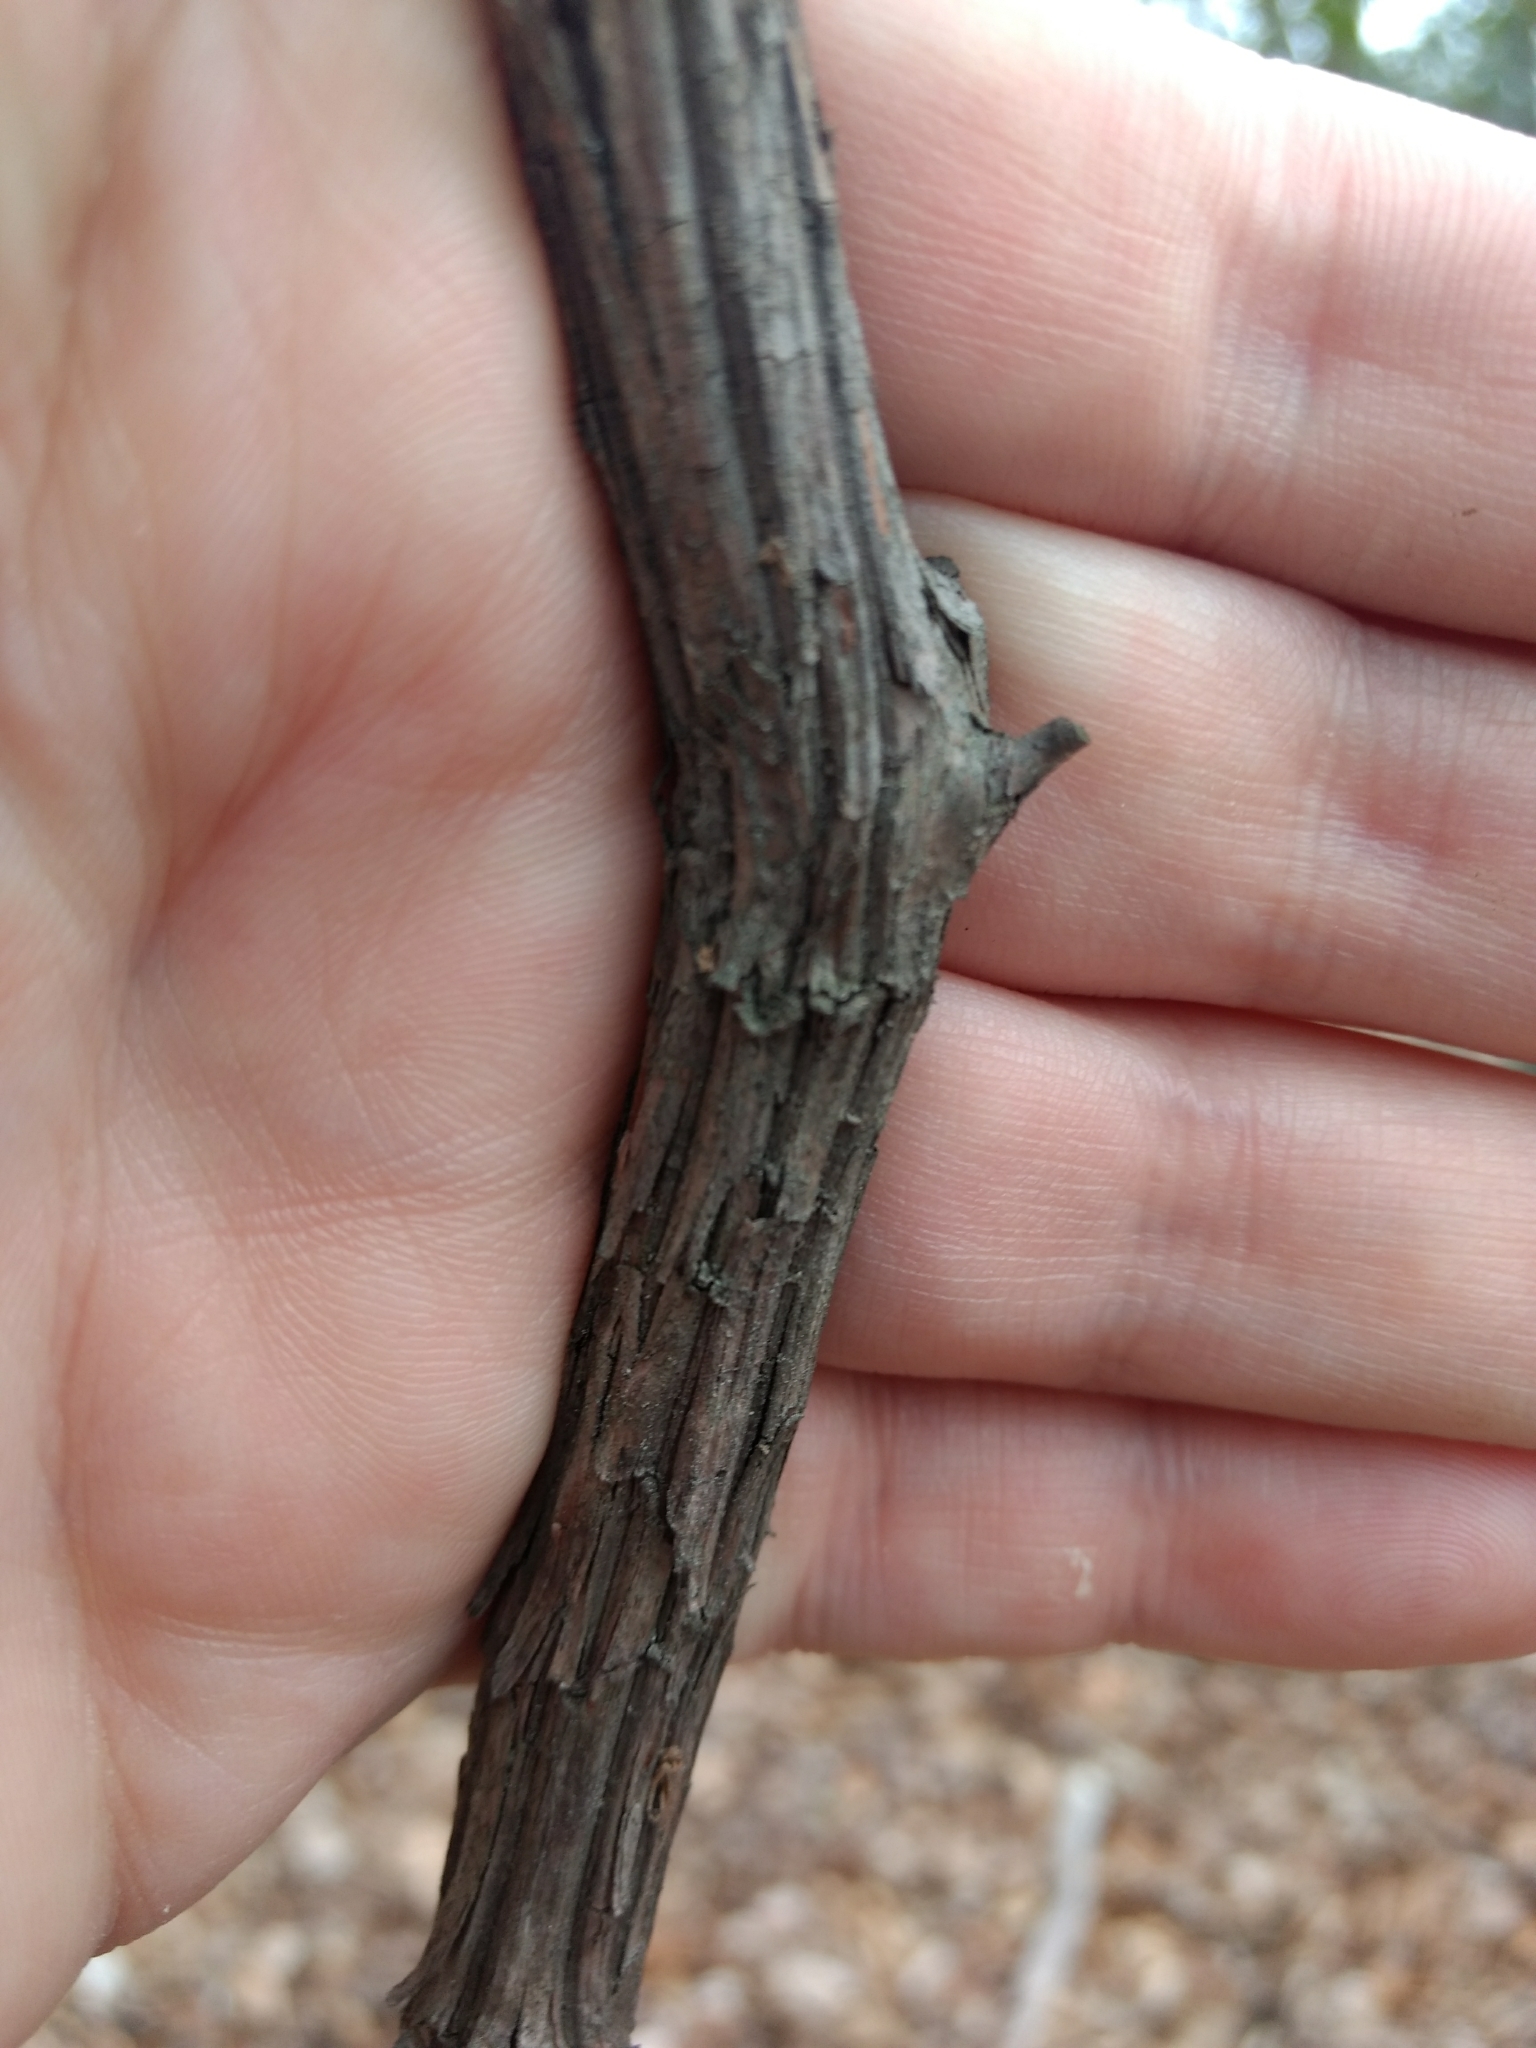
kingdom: Plantae
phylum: Tracheophyta
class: Magnoliopsida
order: Ericales
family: Ericaceae
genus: Kalmia
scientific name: Kalmia latifolia
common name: Mountain-laurel
